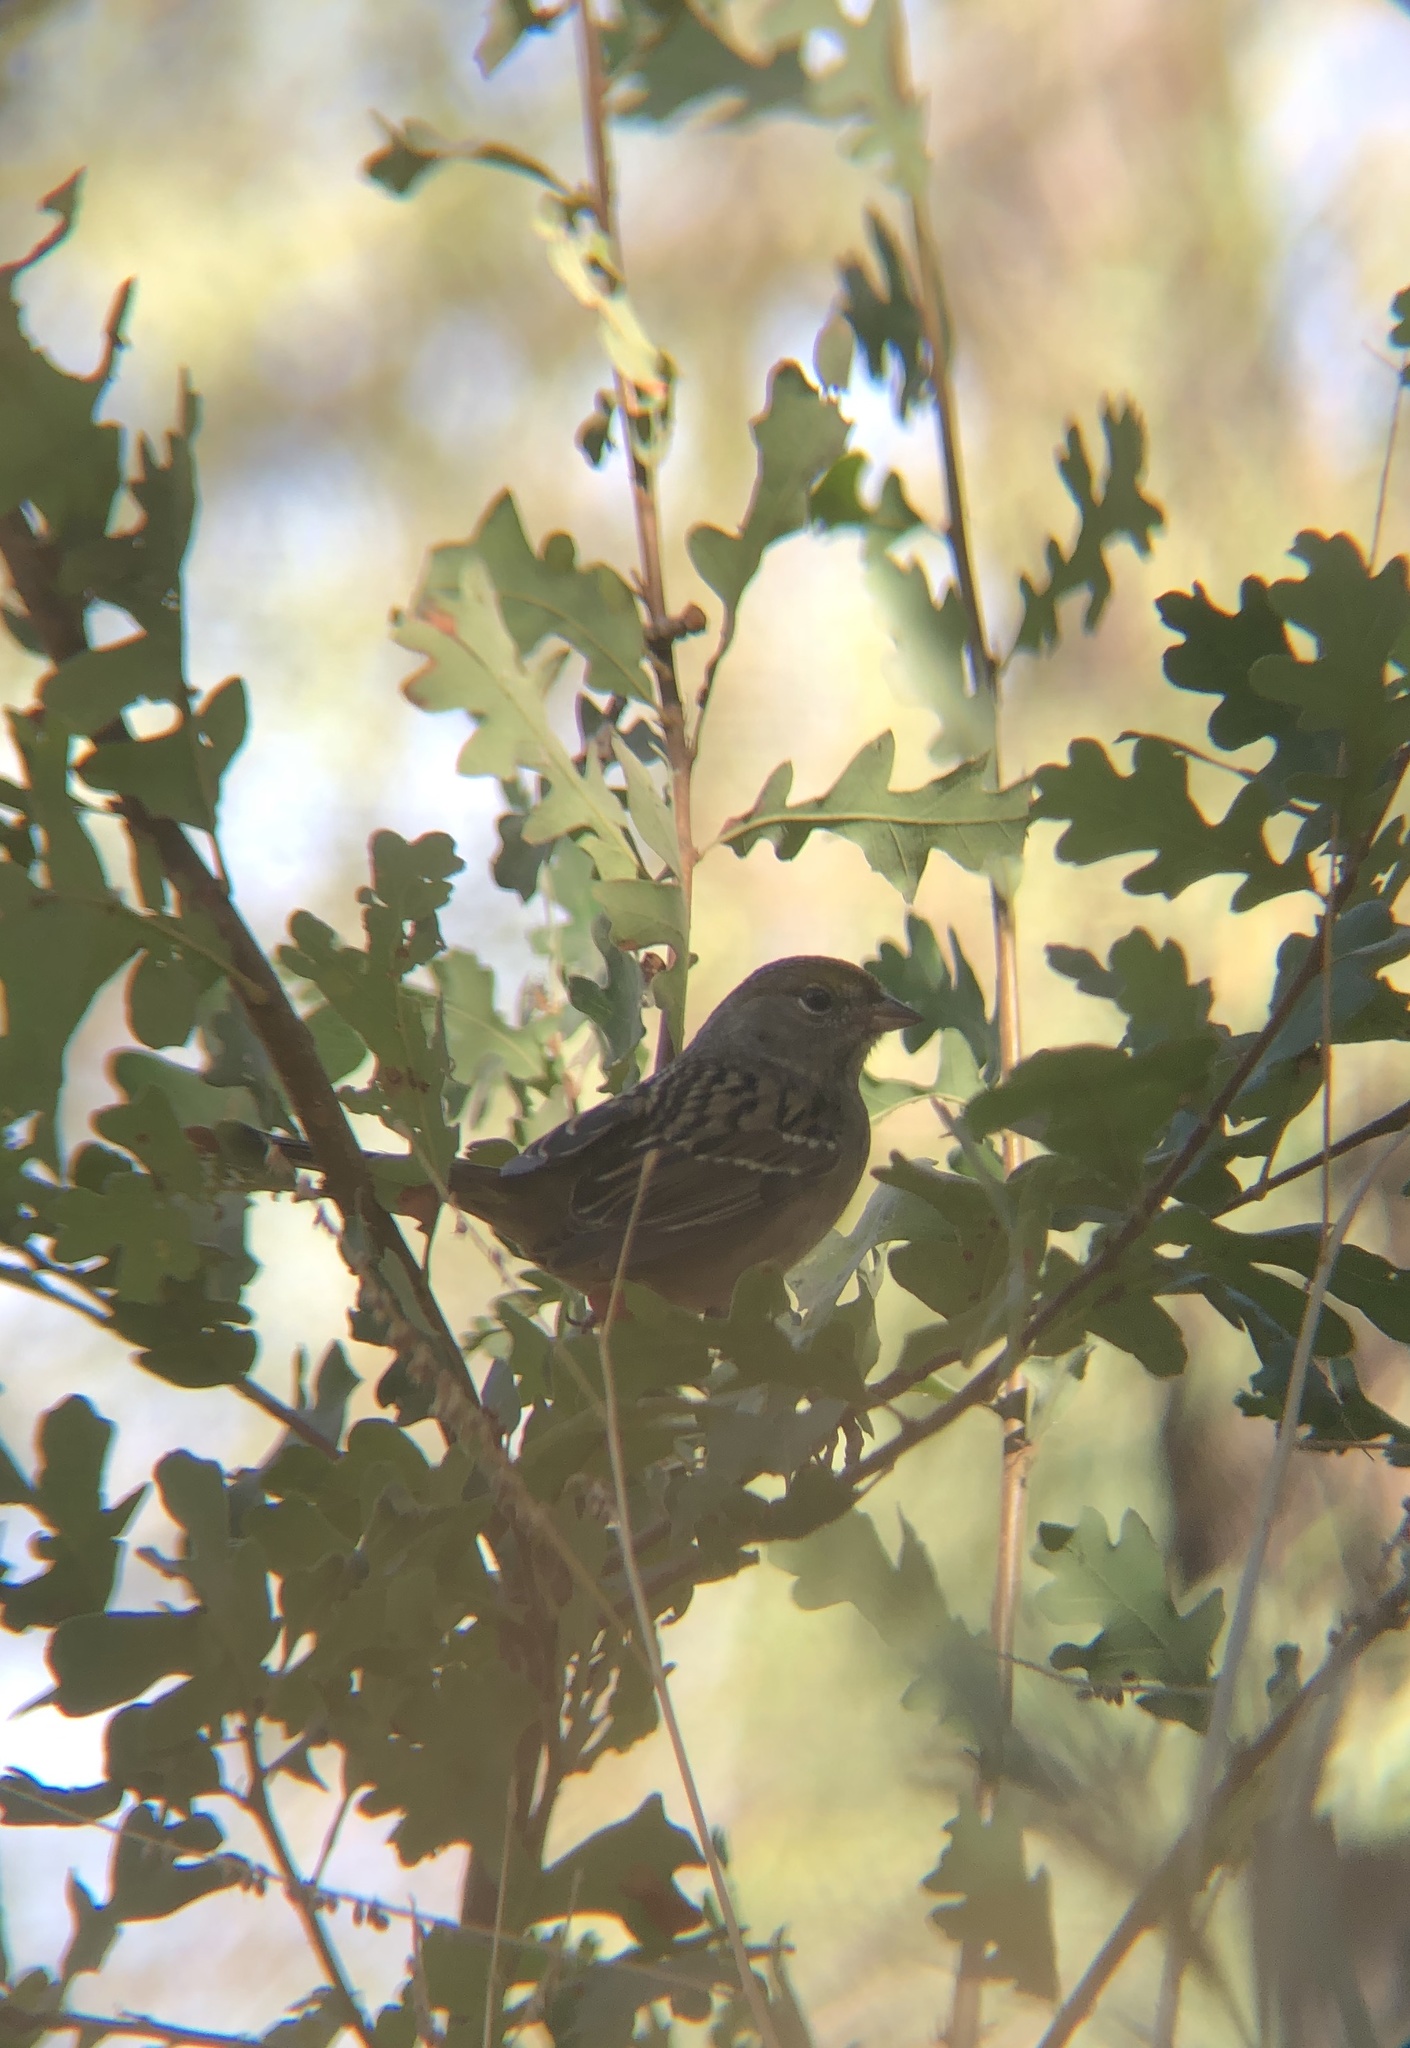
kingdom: Animalia
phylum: Chordata
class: Aves
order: Passeriformes
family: Passerellidae
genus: Zonotrichia
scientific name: Zonotrichia atricapilla
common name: Golden-crowned sparrow
